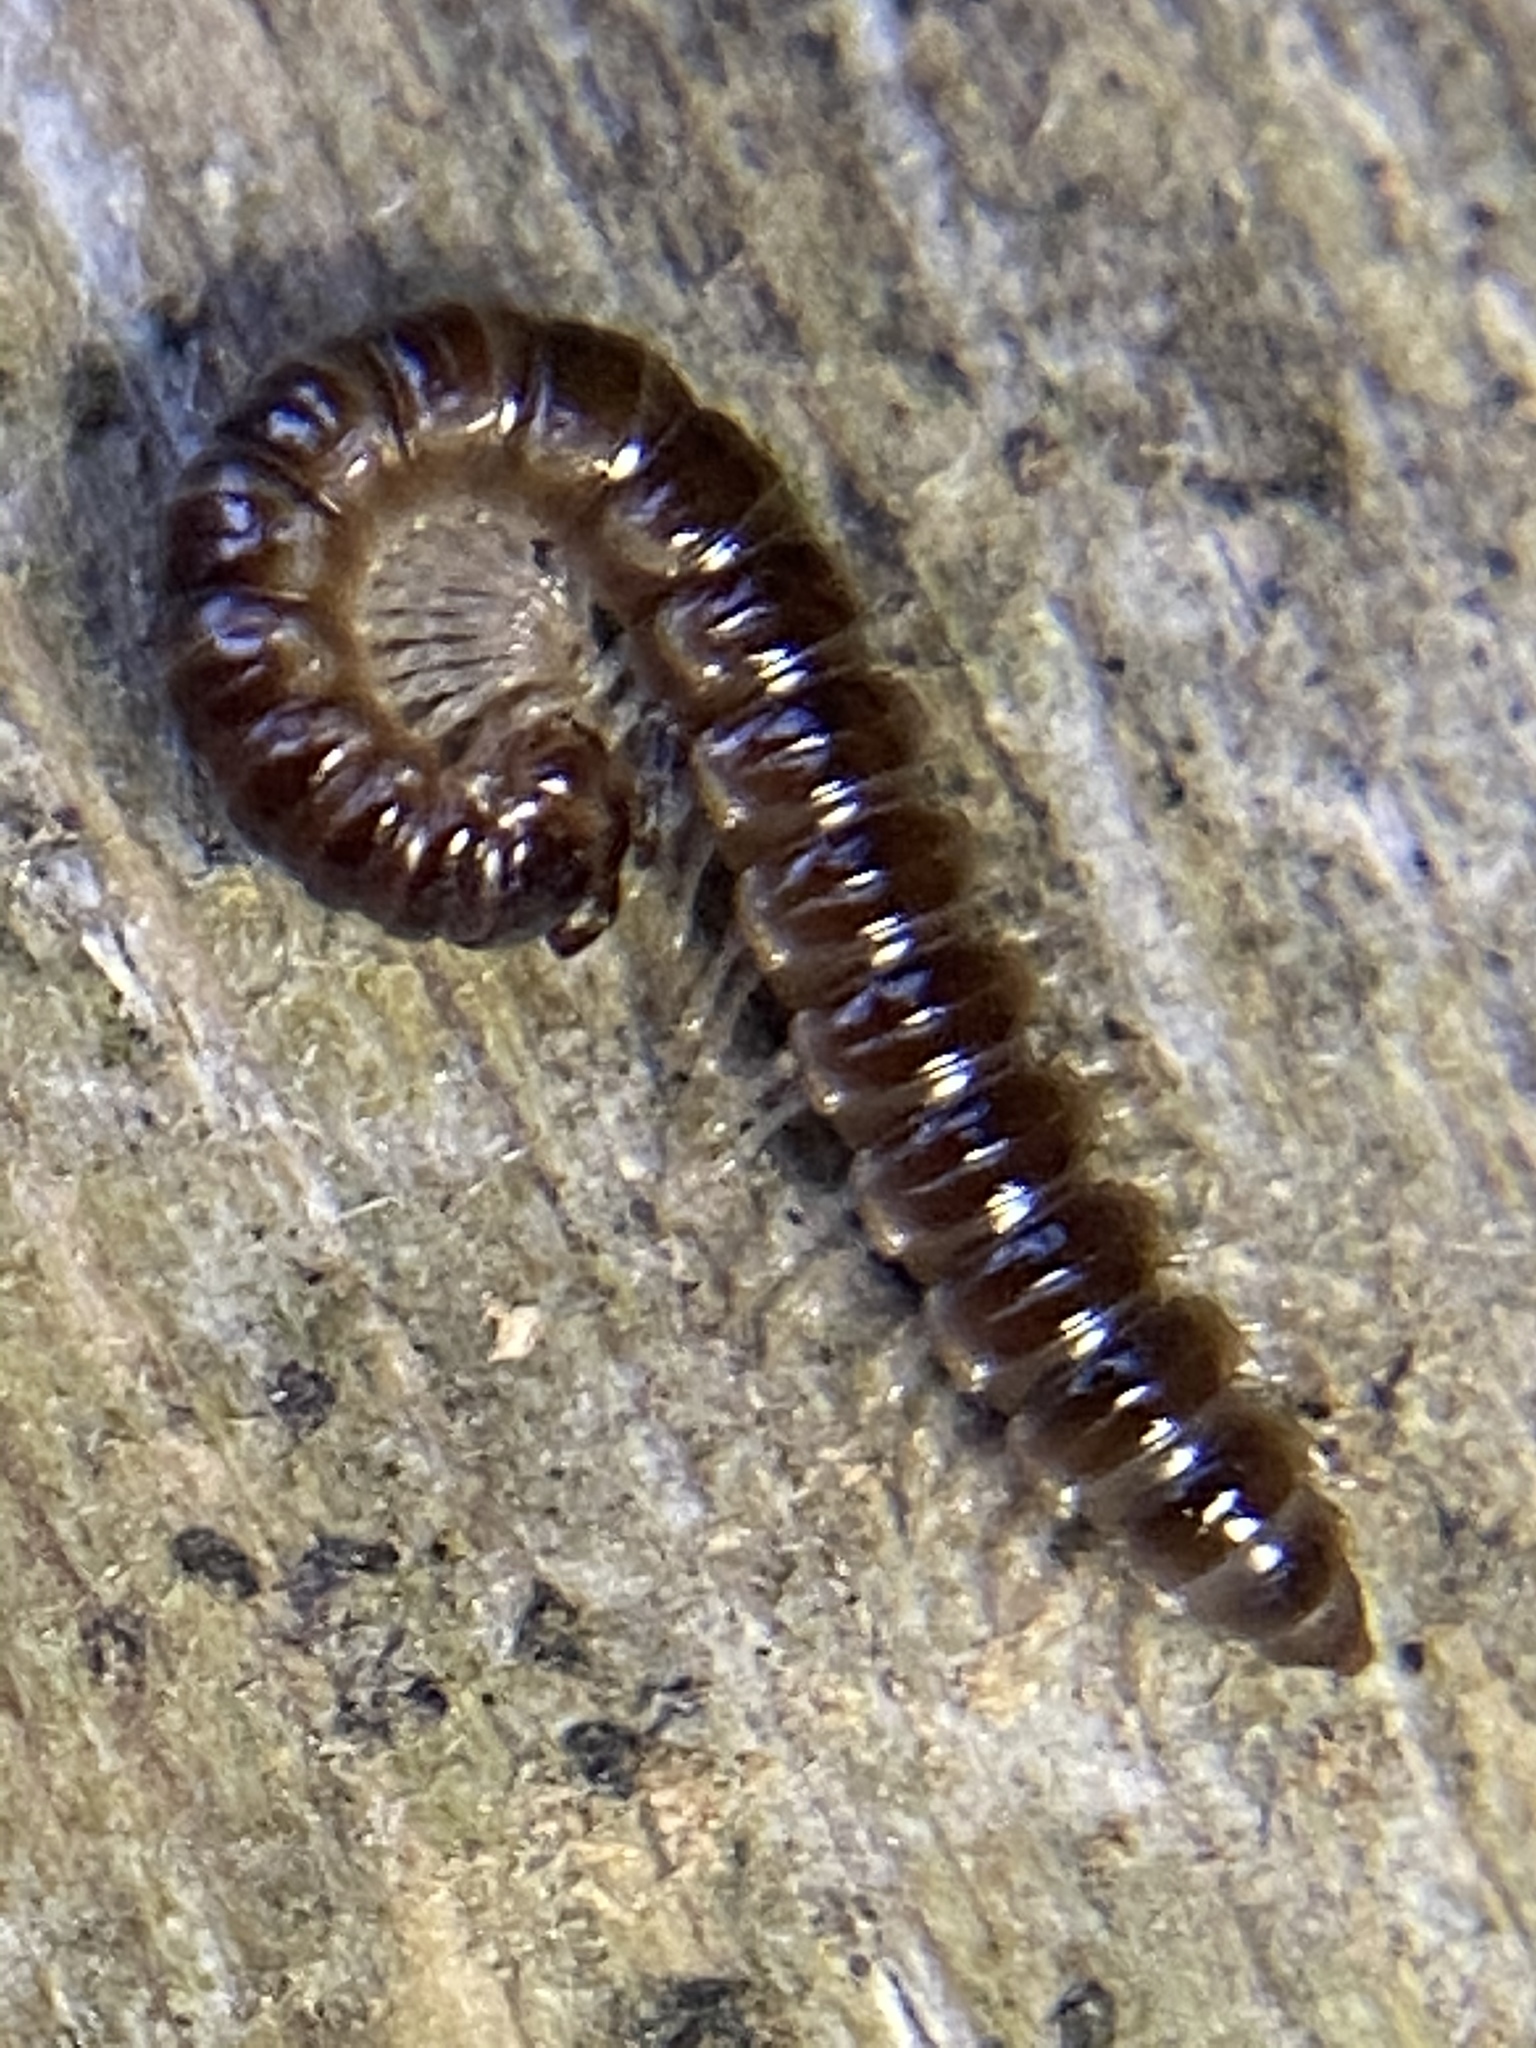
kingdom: Animalia
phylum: Arthropoda
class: Diplopoda
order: Polydesmida
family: Paradoxosomatidae
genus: Oxidus
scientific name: Oxidus gracilis
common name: Greenhouse millipede
